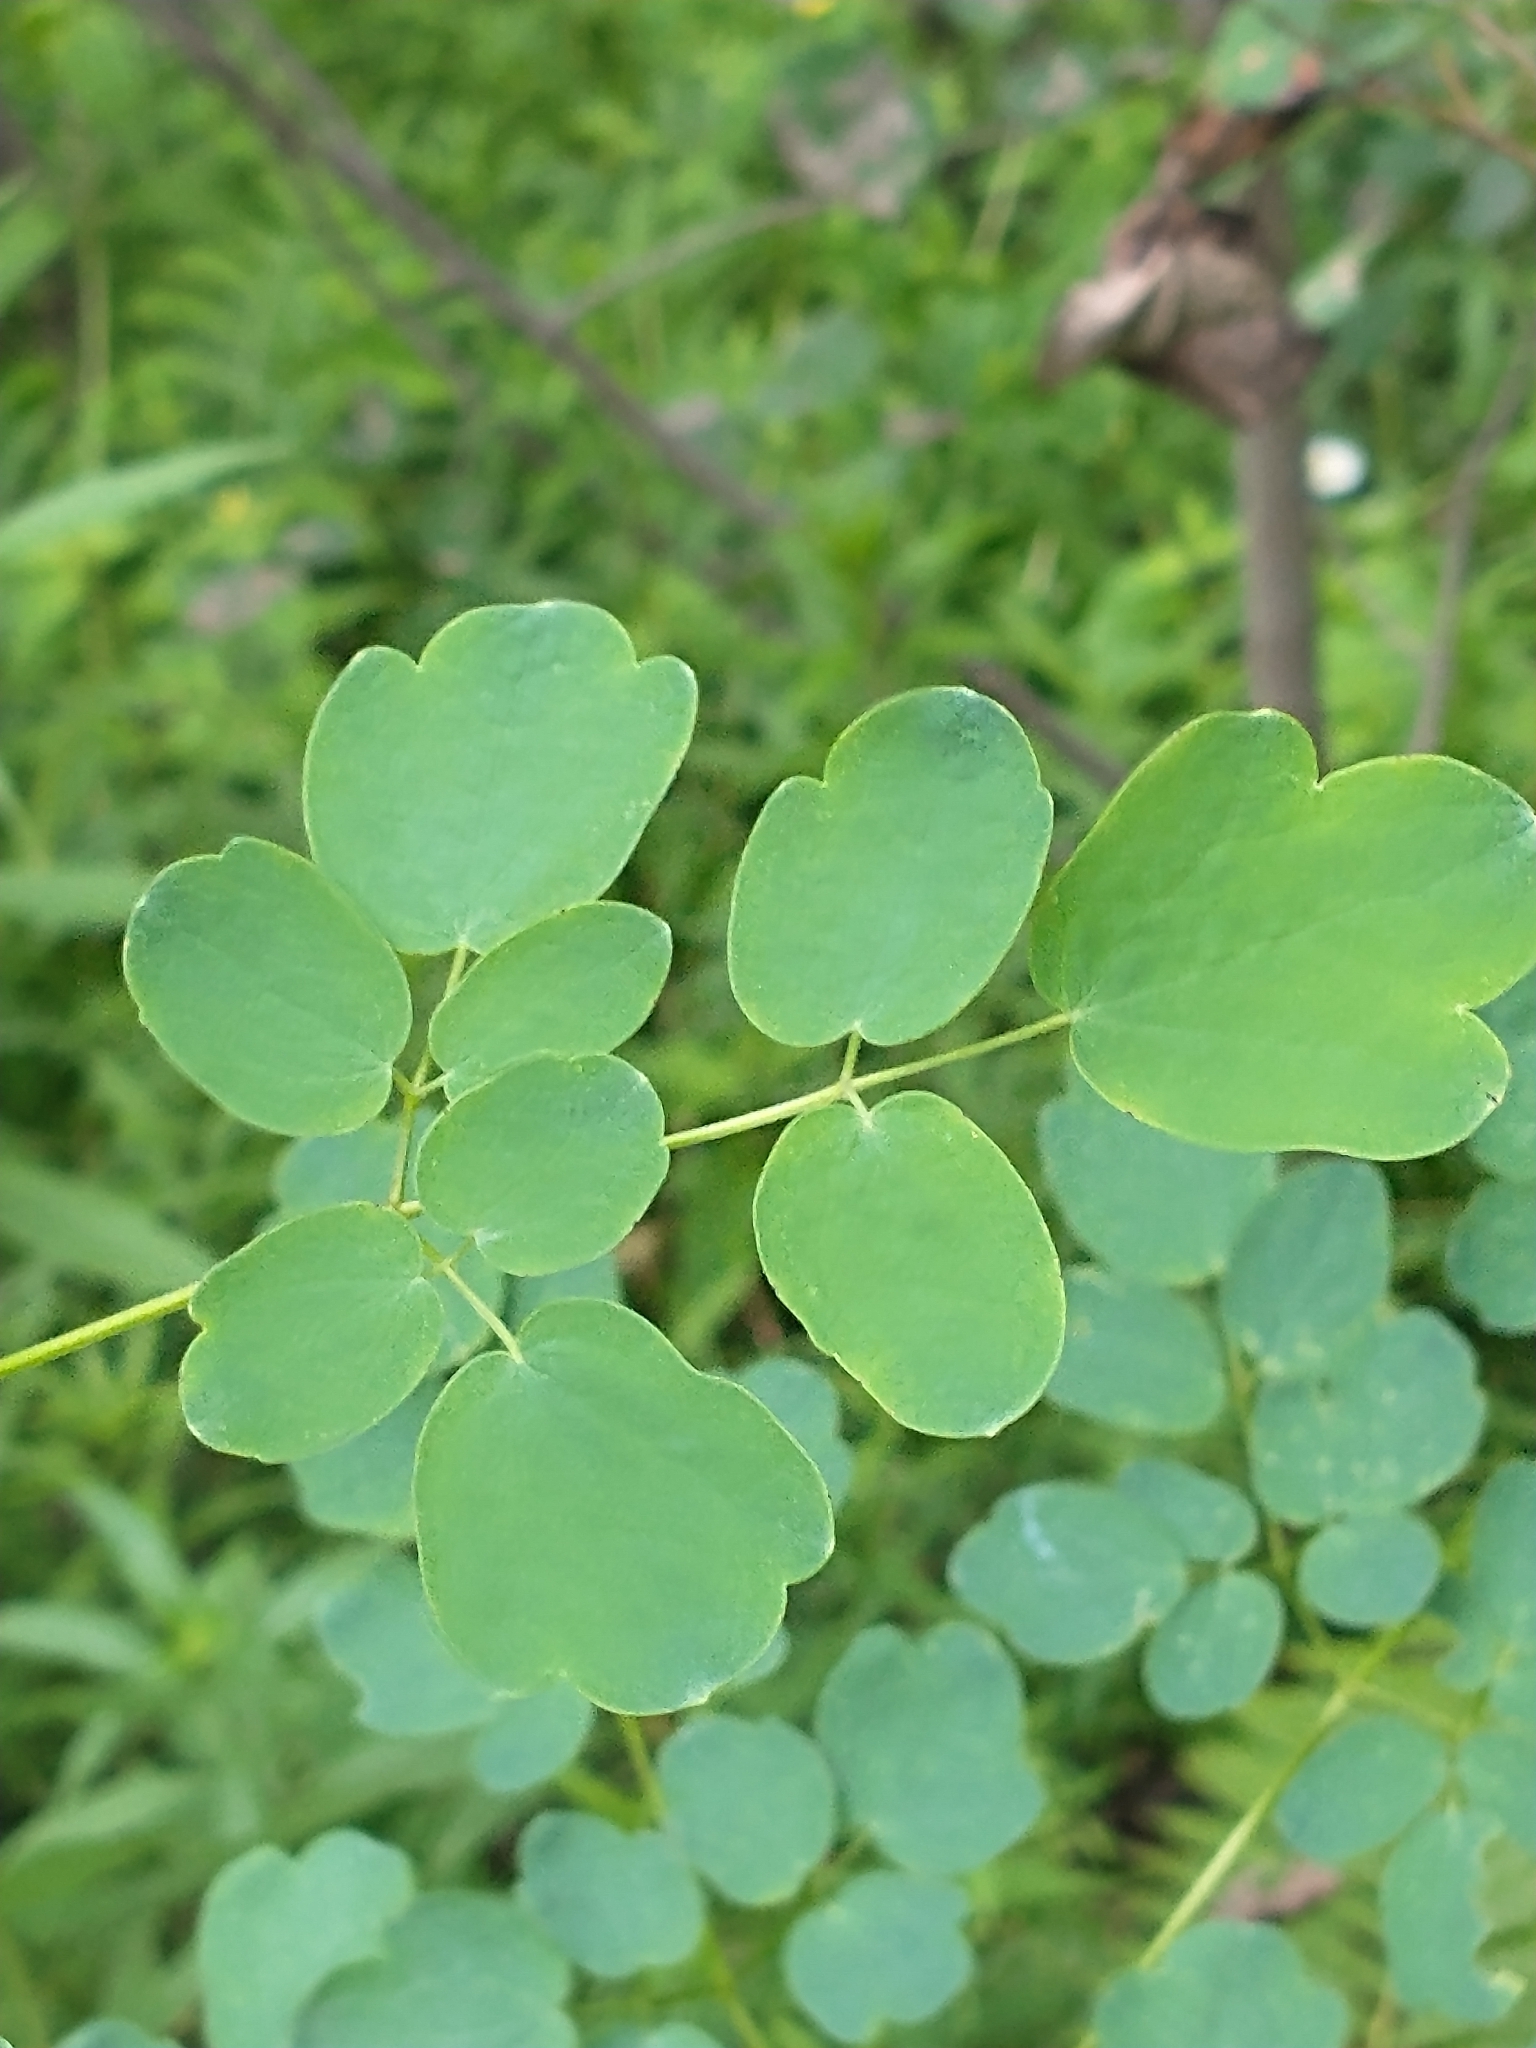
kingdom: Plantae
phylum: Tracheophyta
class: Magnoliopsida
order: Ranunculales
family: Ranunculaceae
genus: Thalictrum
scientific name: Thalictrum pubescens
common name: King-of-the-meadow
